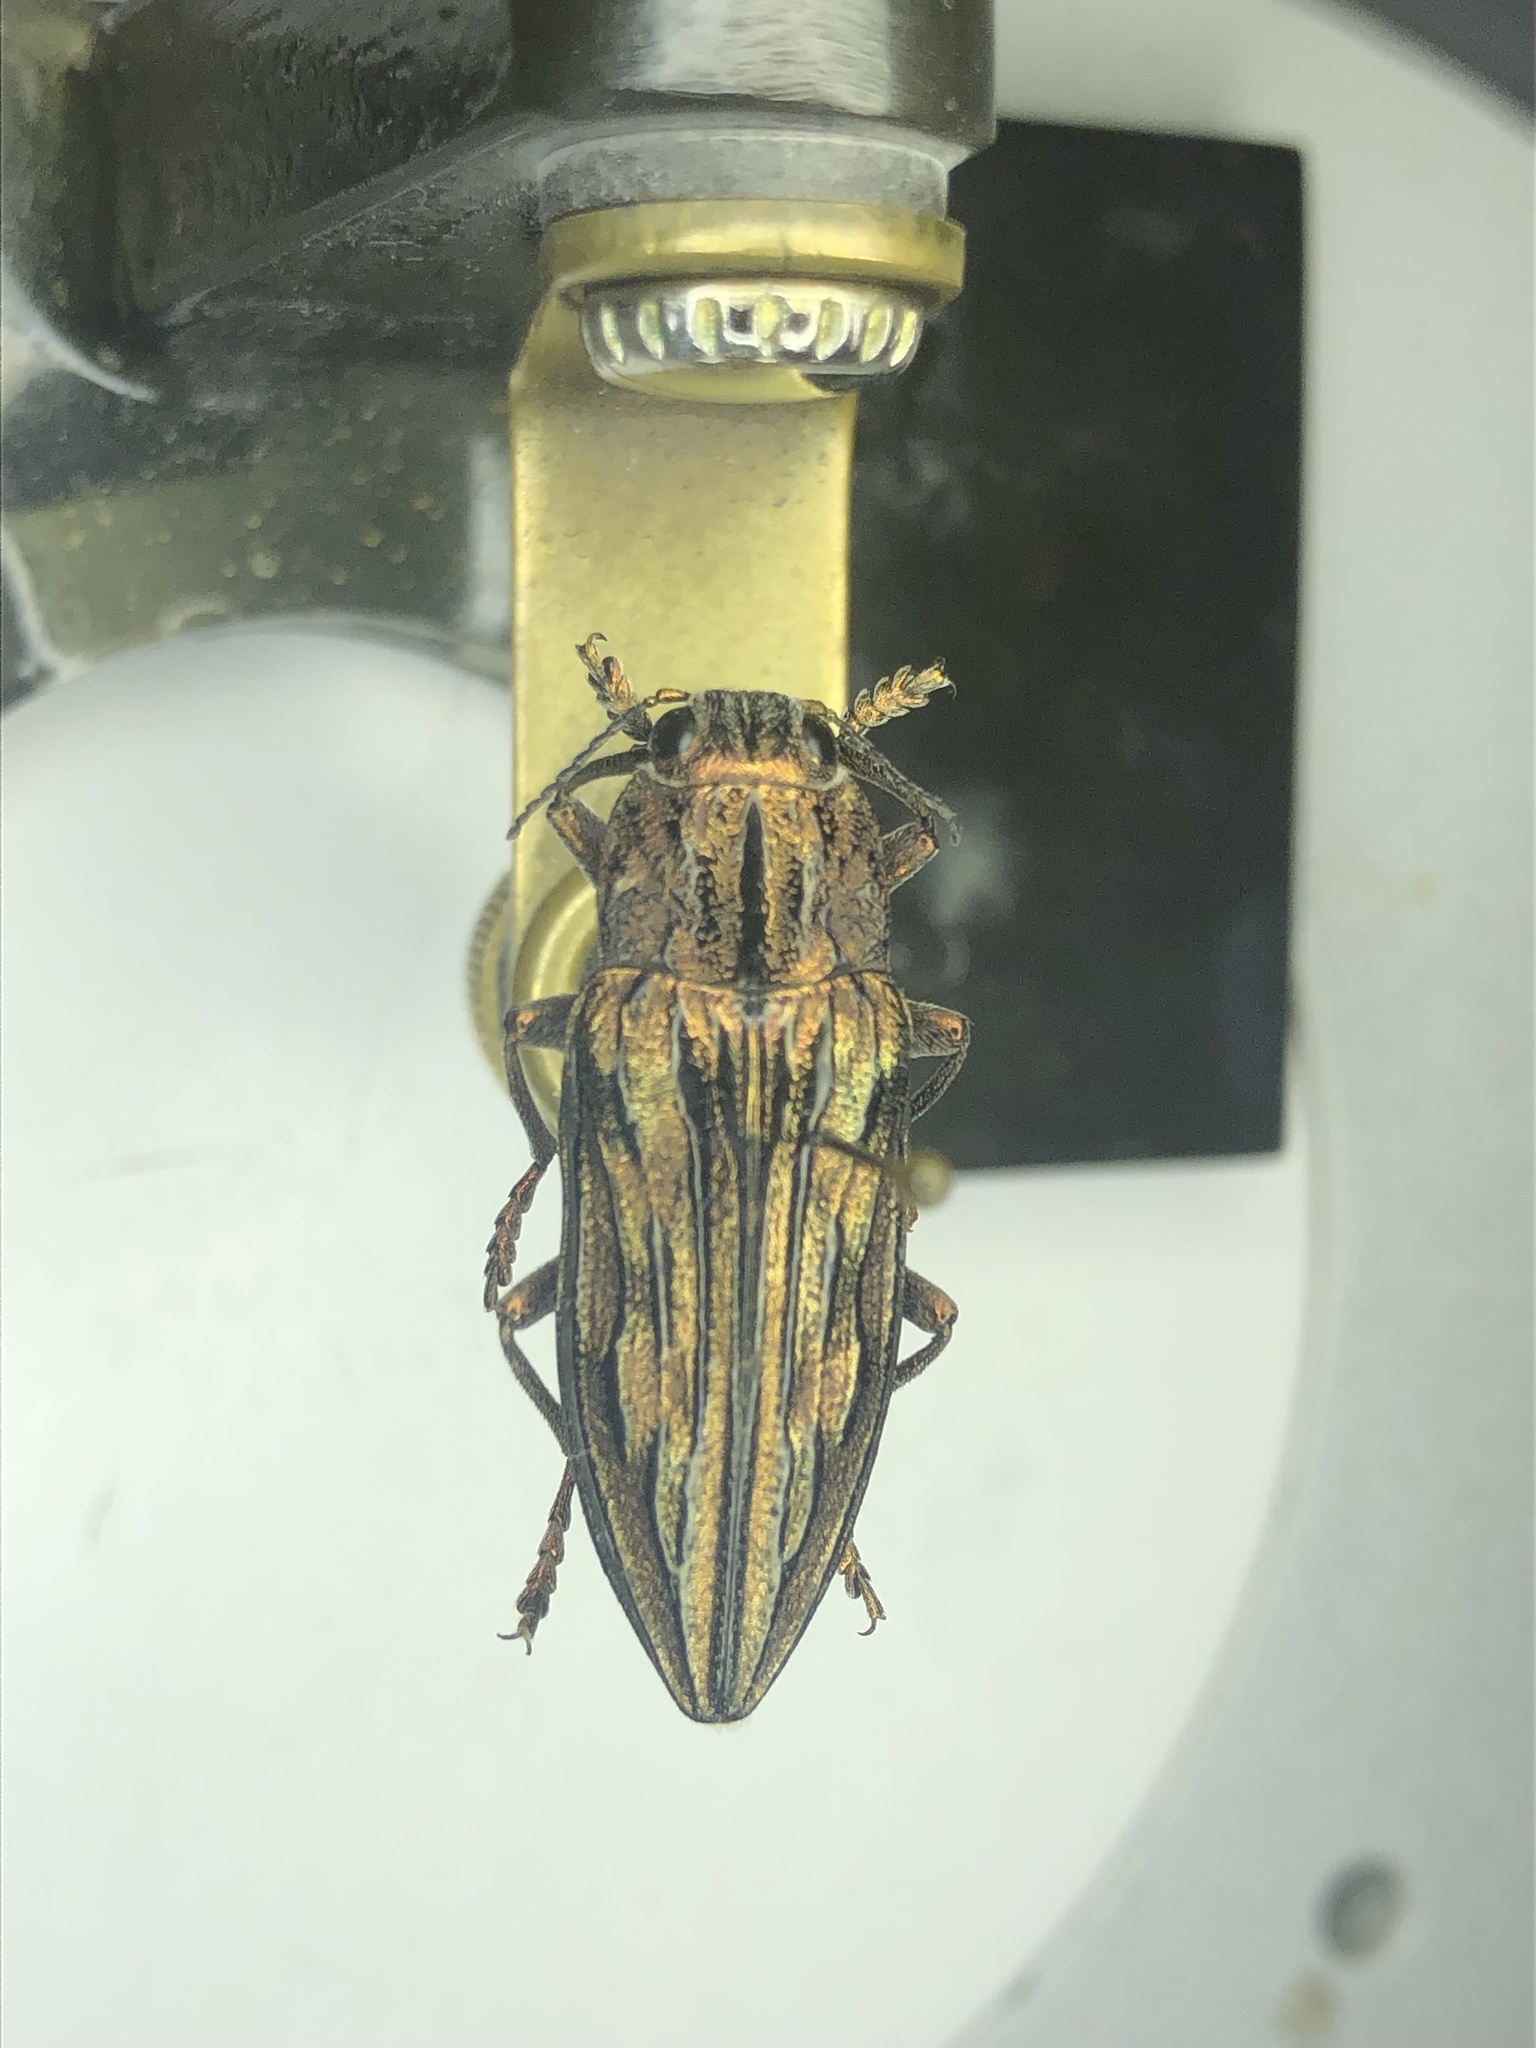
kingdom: Animalia
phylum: Arthropoda
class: Insecta
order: Coleoptera
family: Buprestidae
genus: Chalcophora
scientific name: Chalcophora fortis
